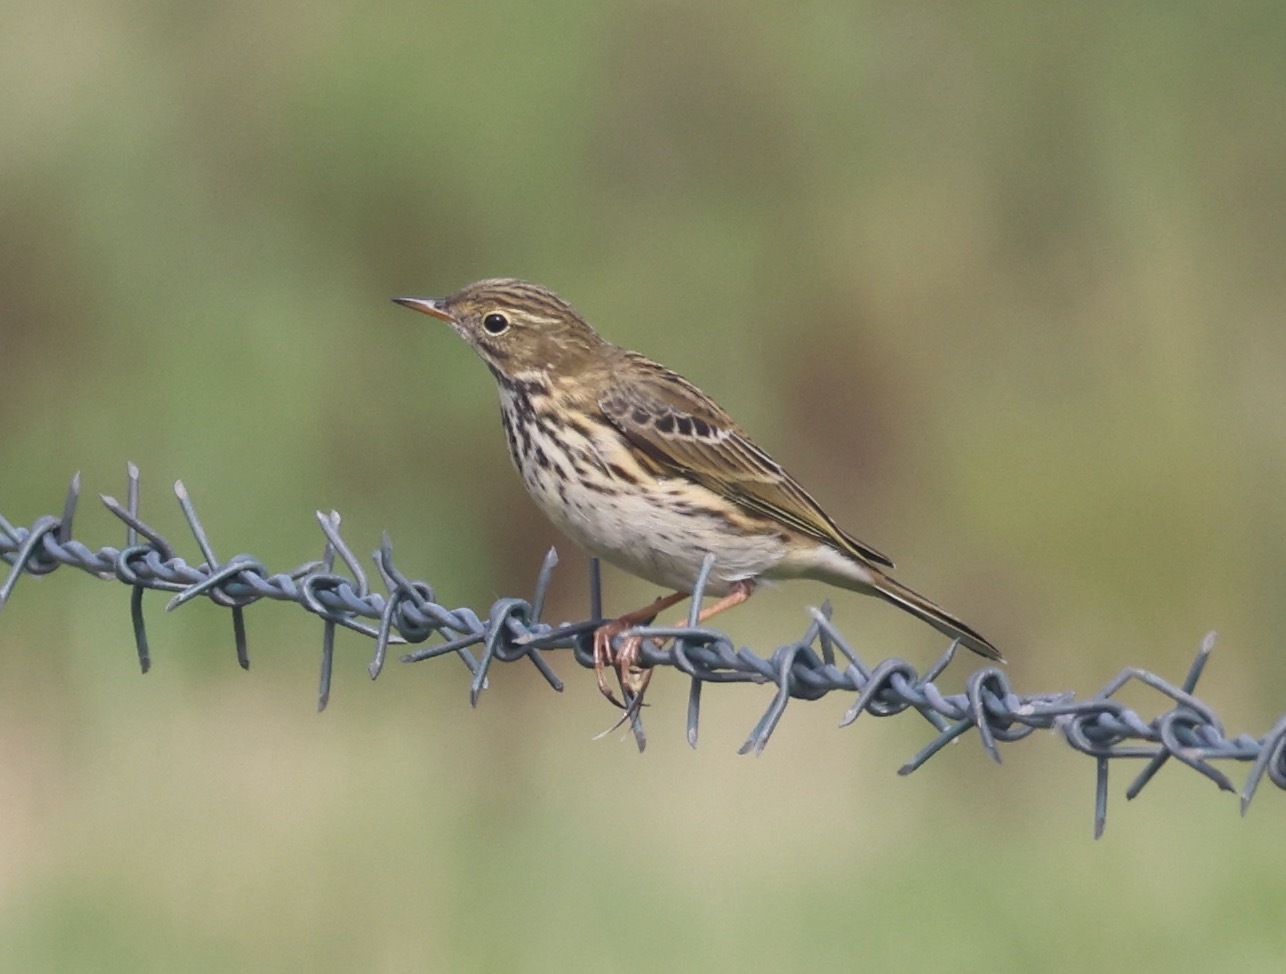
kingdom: Animalia
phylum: Chordata
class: Aves
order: Passeriformes
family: Motacillidae
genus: Anthus
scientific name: Anthus pratensis
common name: Meadow pipit
